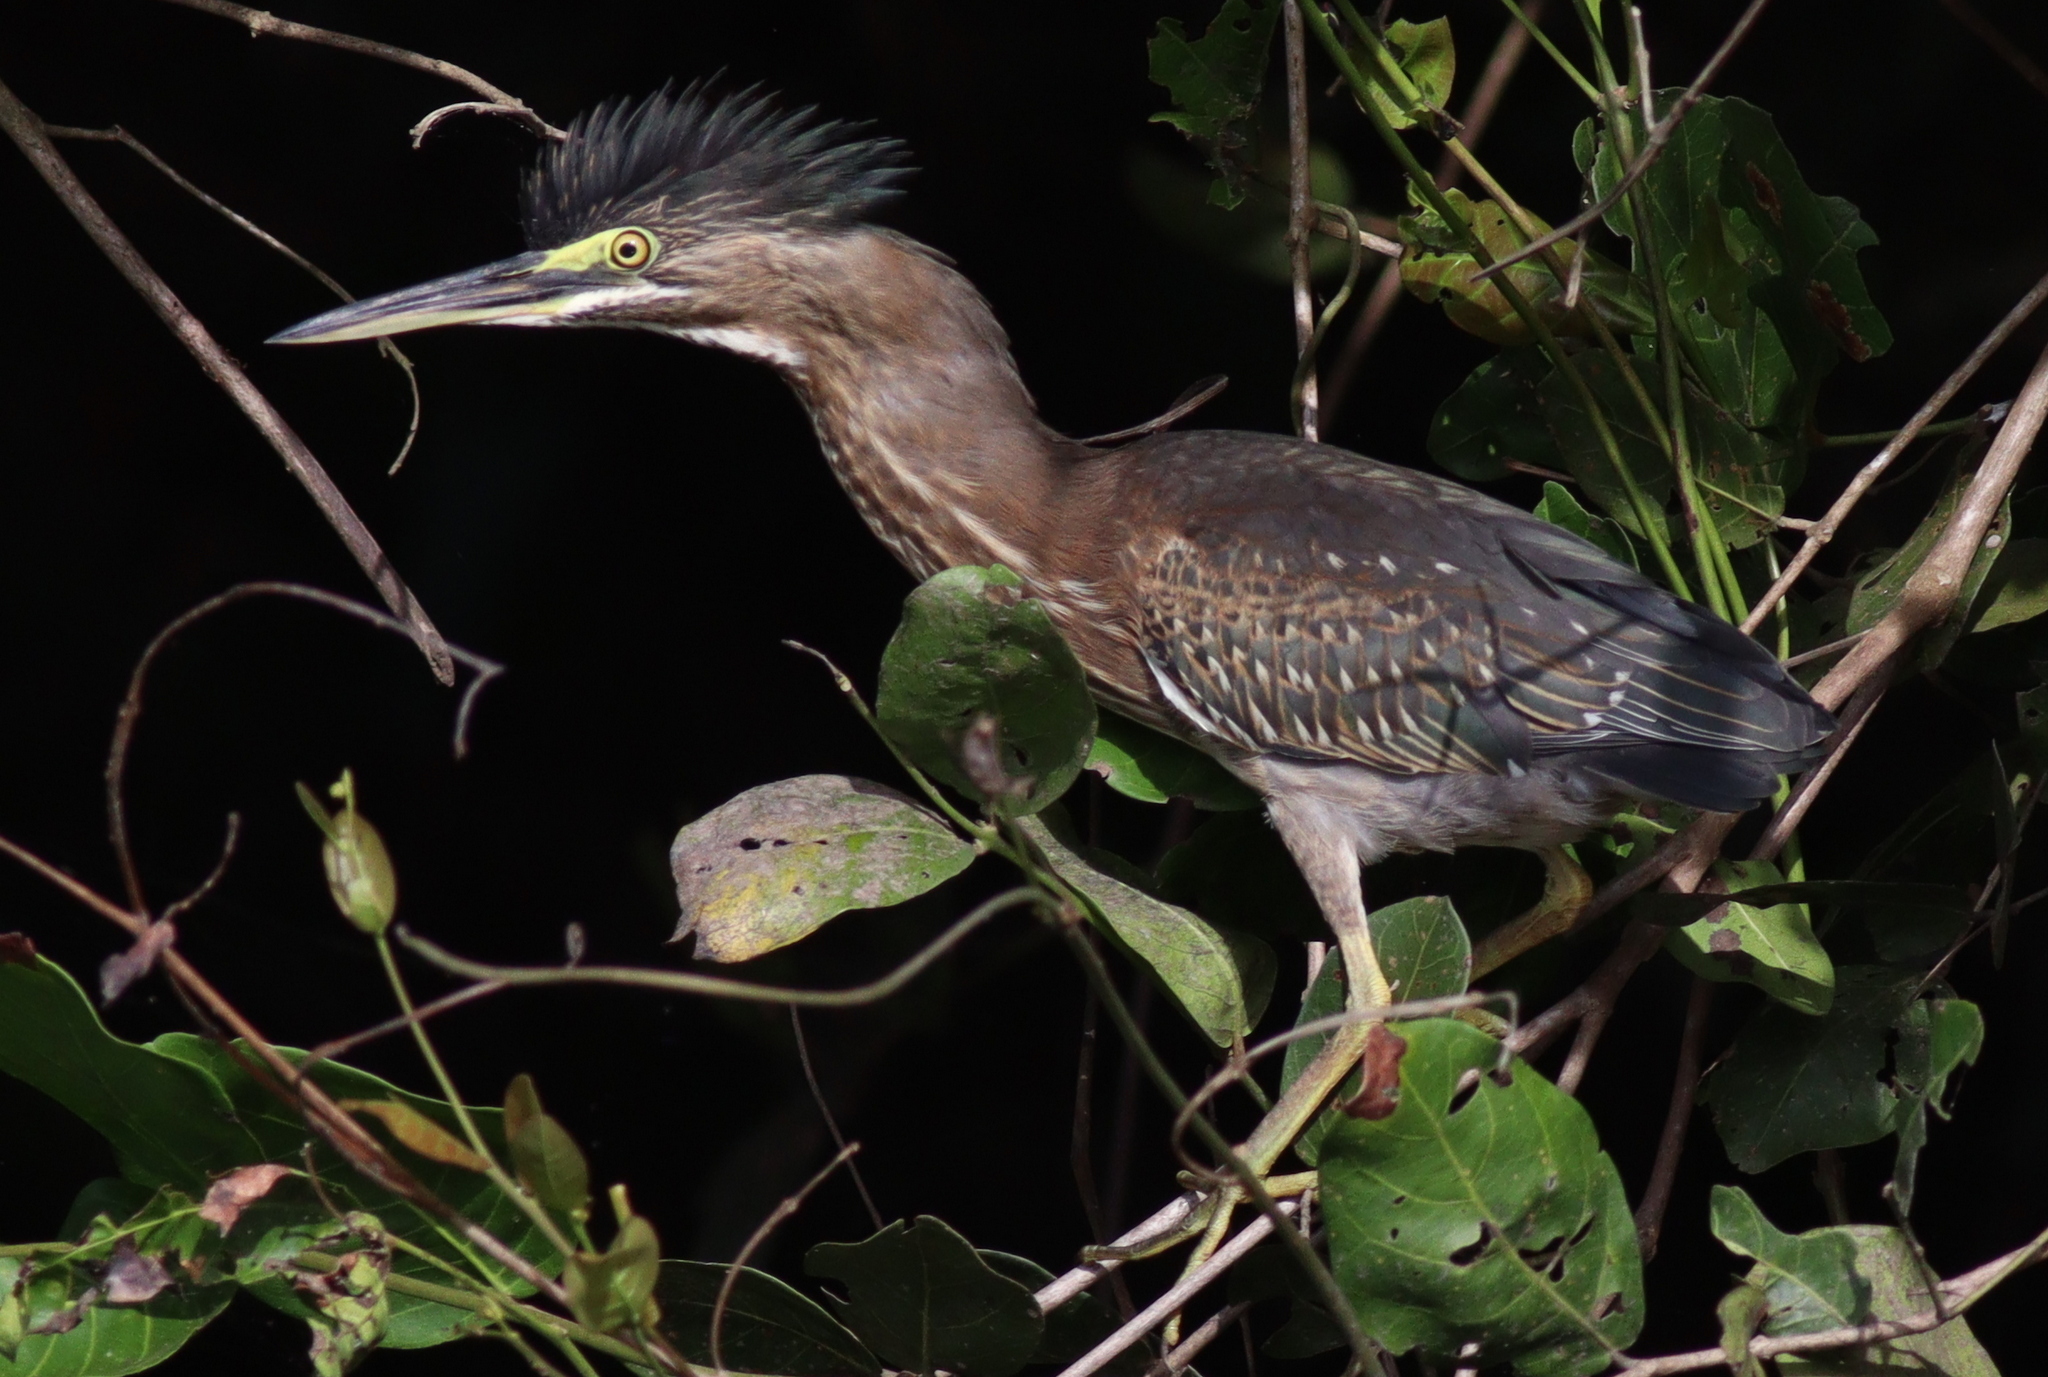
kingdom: Animalia
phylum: Chordata
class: Aves
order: Pelecaniformes
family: Ardeidae
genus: Butorides
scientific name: Butorides striata
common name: Striated heron
